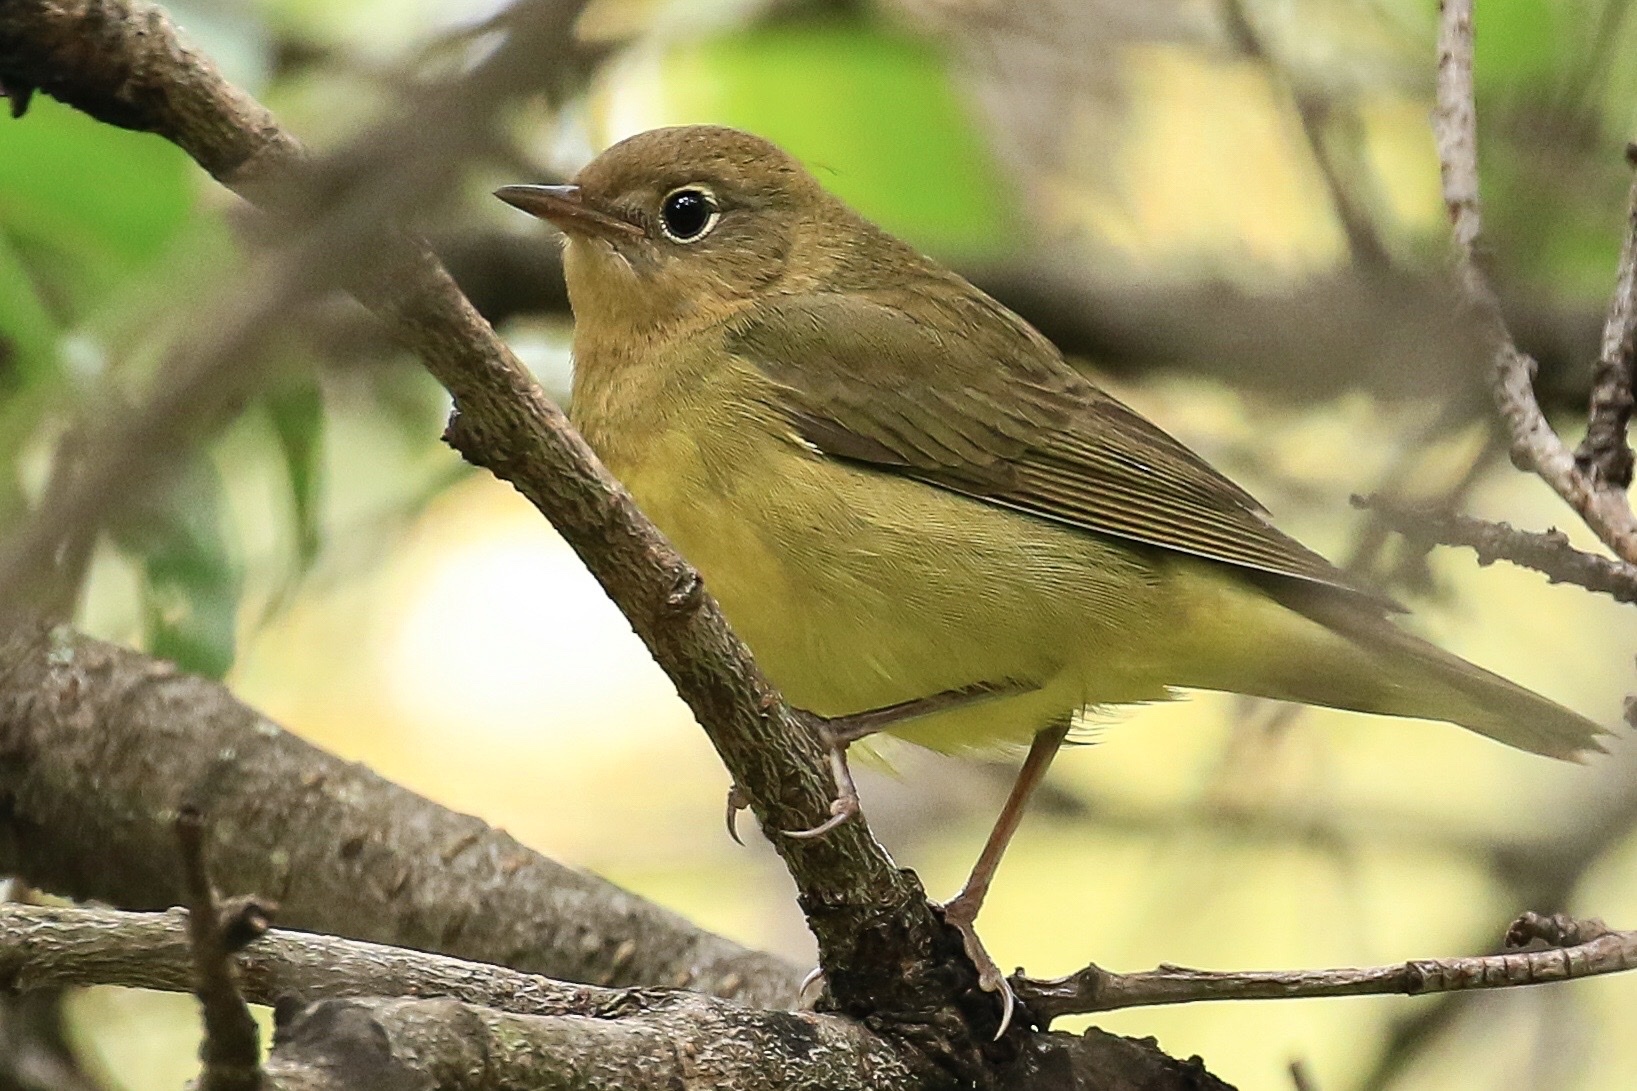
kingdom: Animalia
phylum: Chordata
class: Aves
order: Passeriformes
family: Parulidae
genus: Oporornis
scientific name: Oporornis agilis
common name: Connecticut warbler
